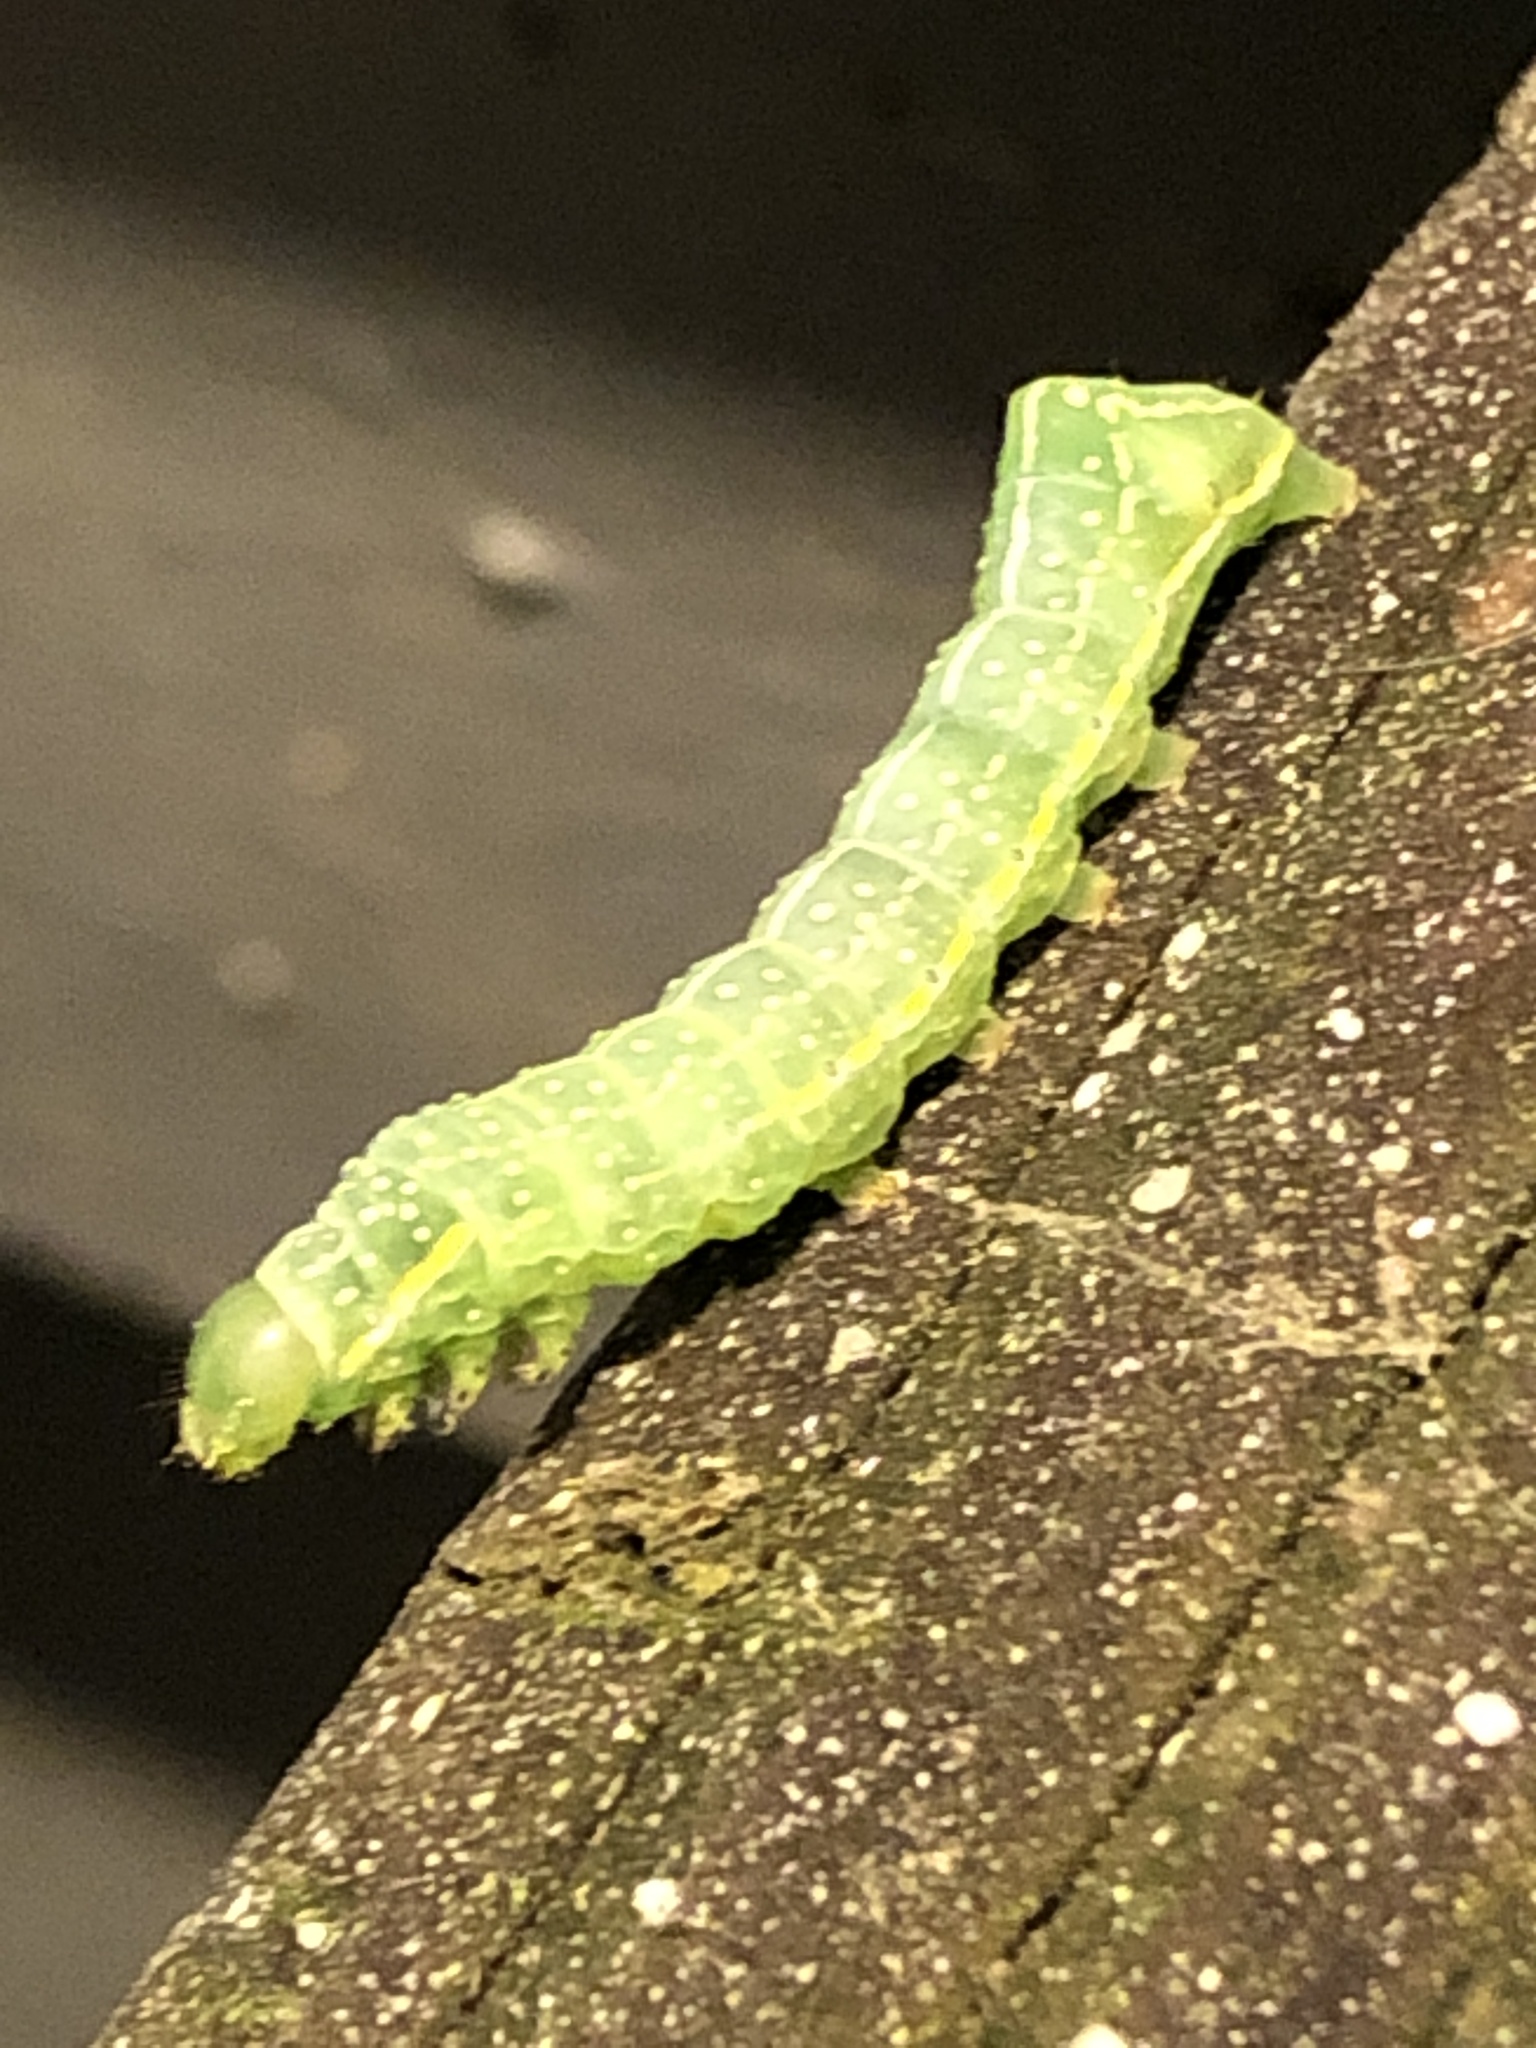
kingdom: Animalia
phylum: Arthropoda
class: Insecta
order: Lepidoptera
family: Noctuidae
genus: Amphipyra
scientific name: Amphipyra pyramidoides
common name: American copper underwing
